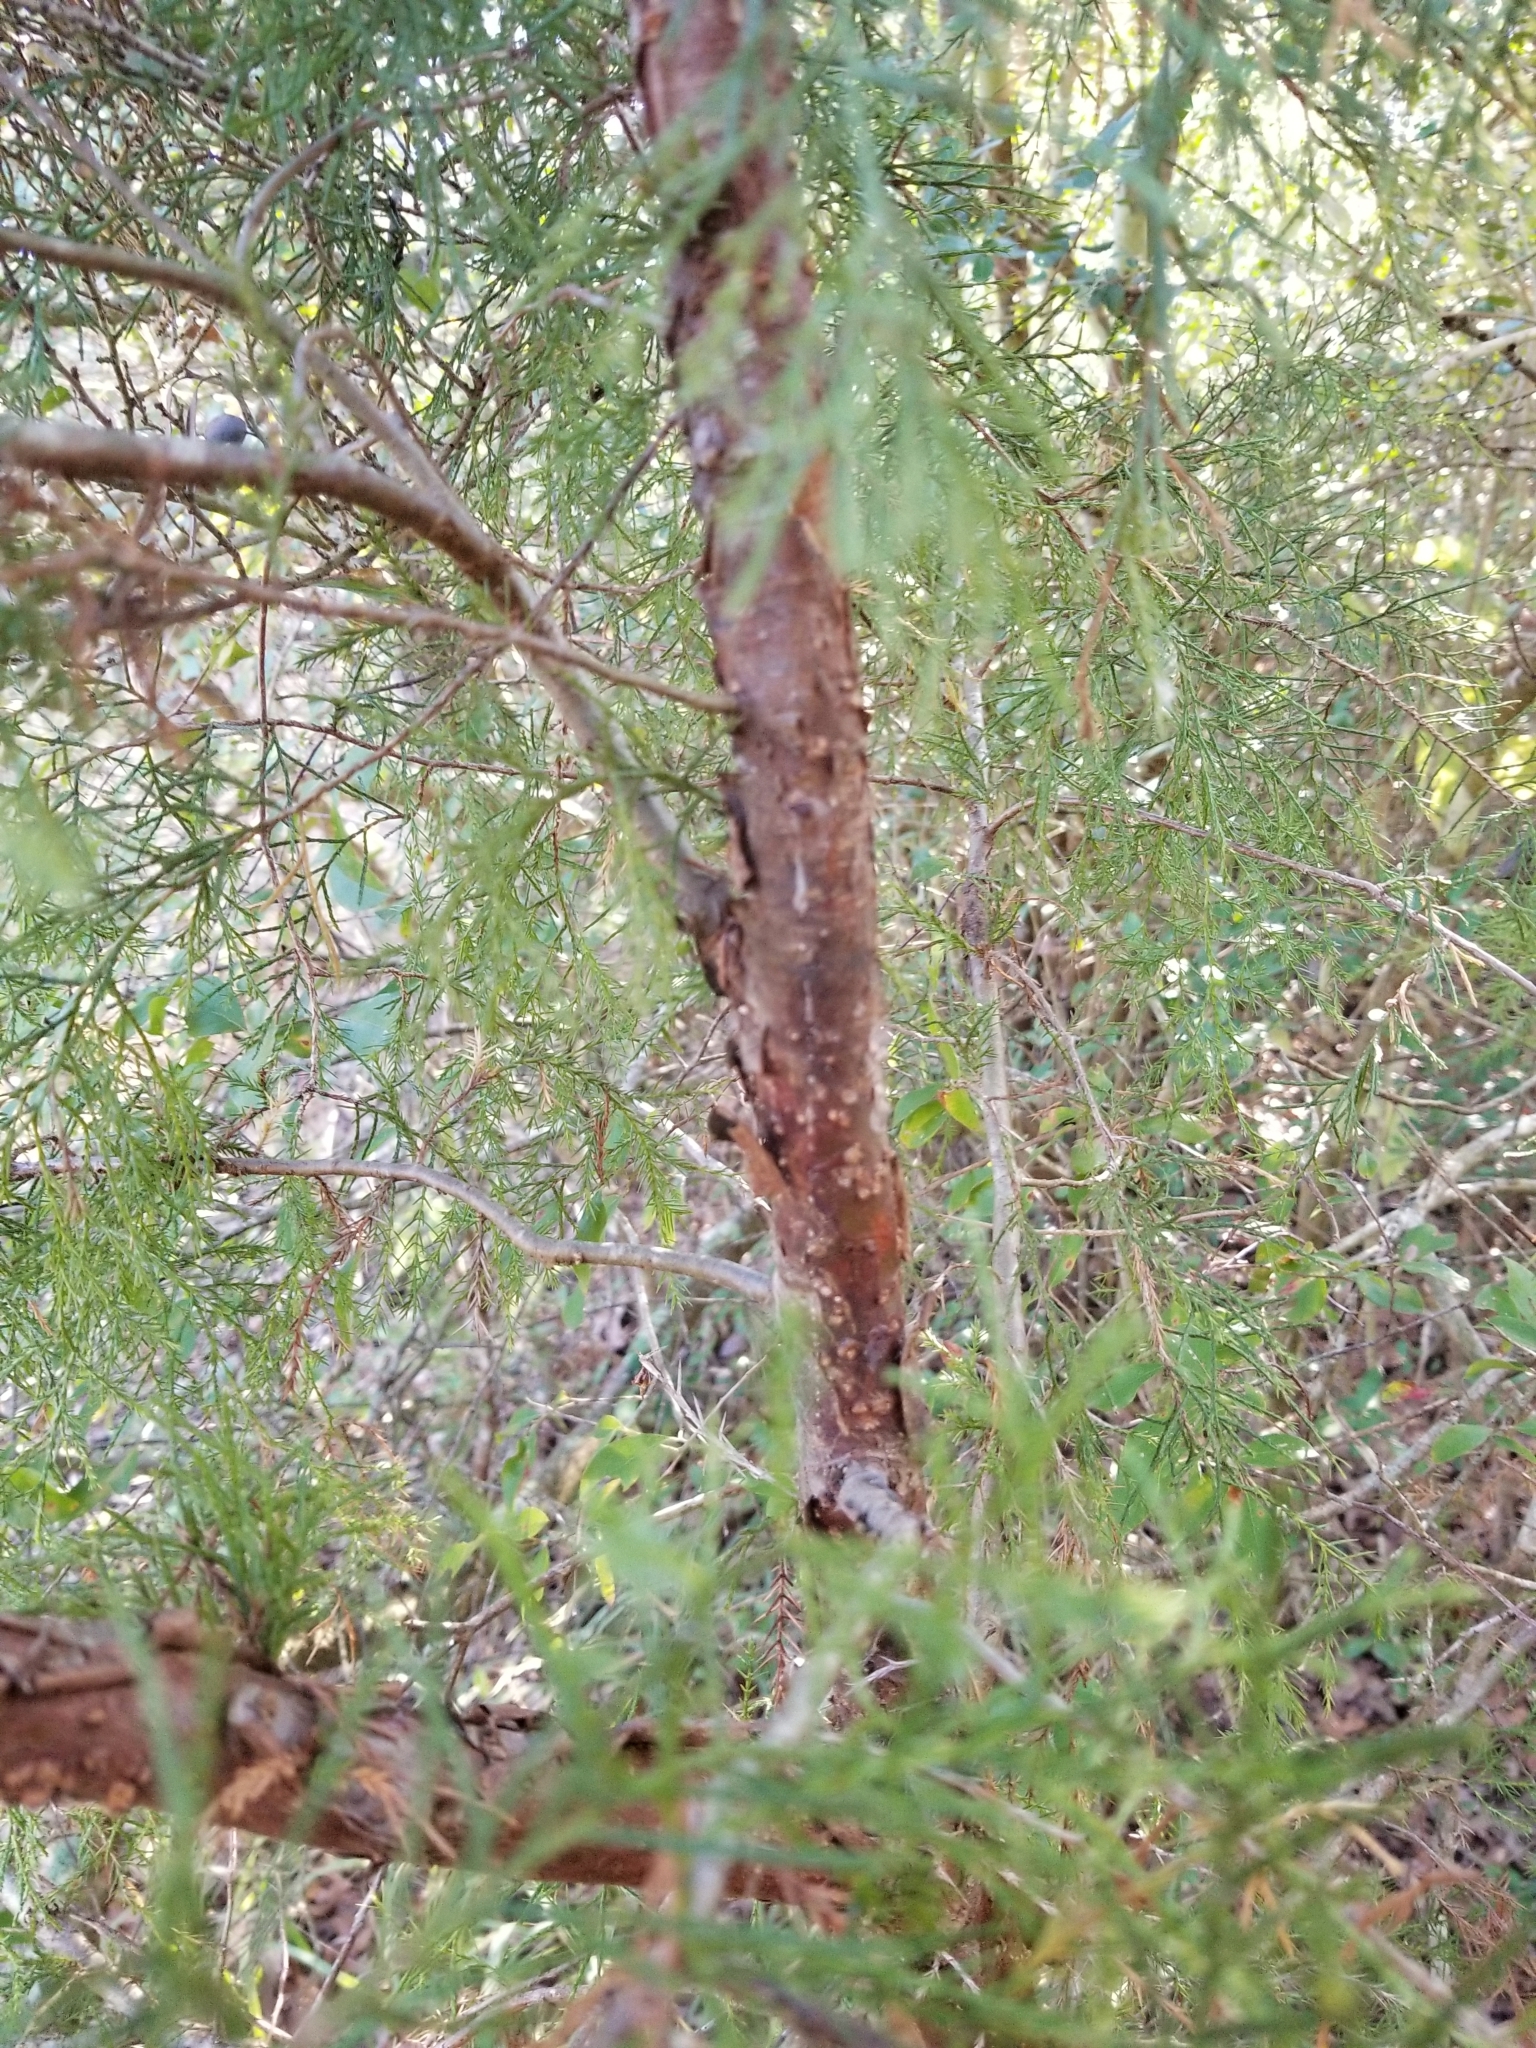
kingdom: Plantae
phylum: Tracheophyta
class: Pinopsida
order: Pinales
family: Cupressaceae
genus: Juniperus
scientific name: Juniperus virginiana
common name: Red juniper
